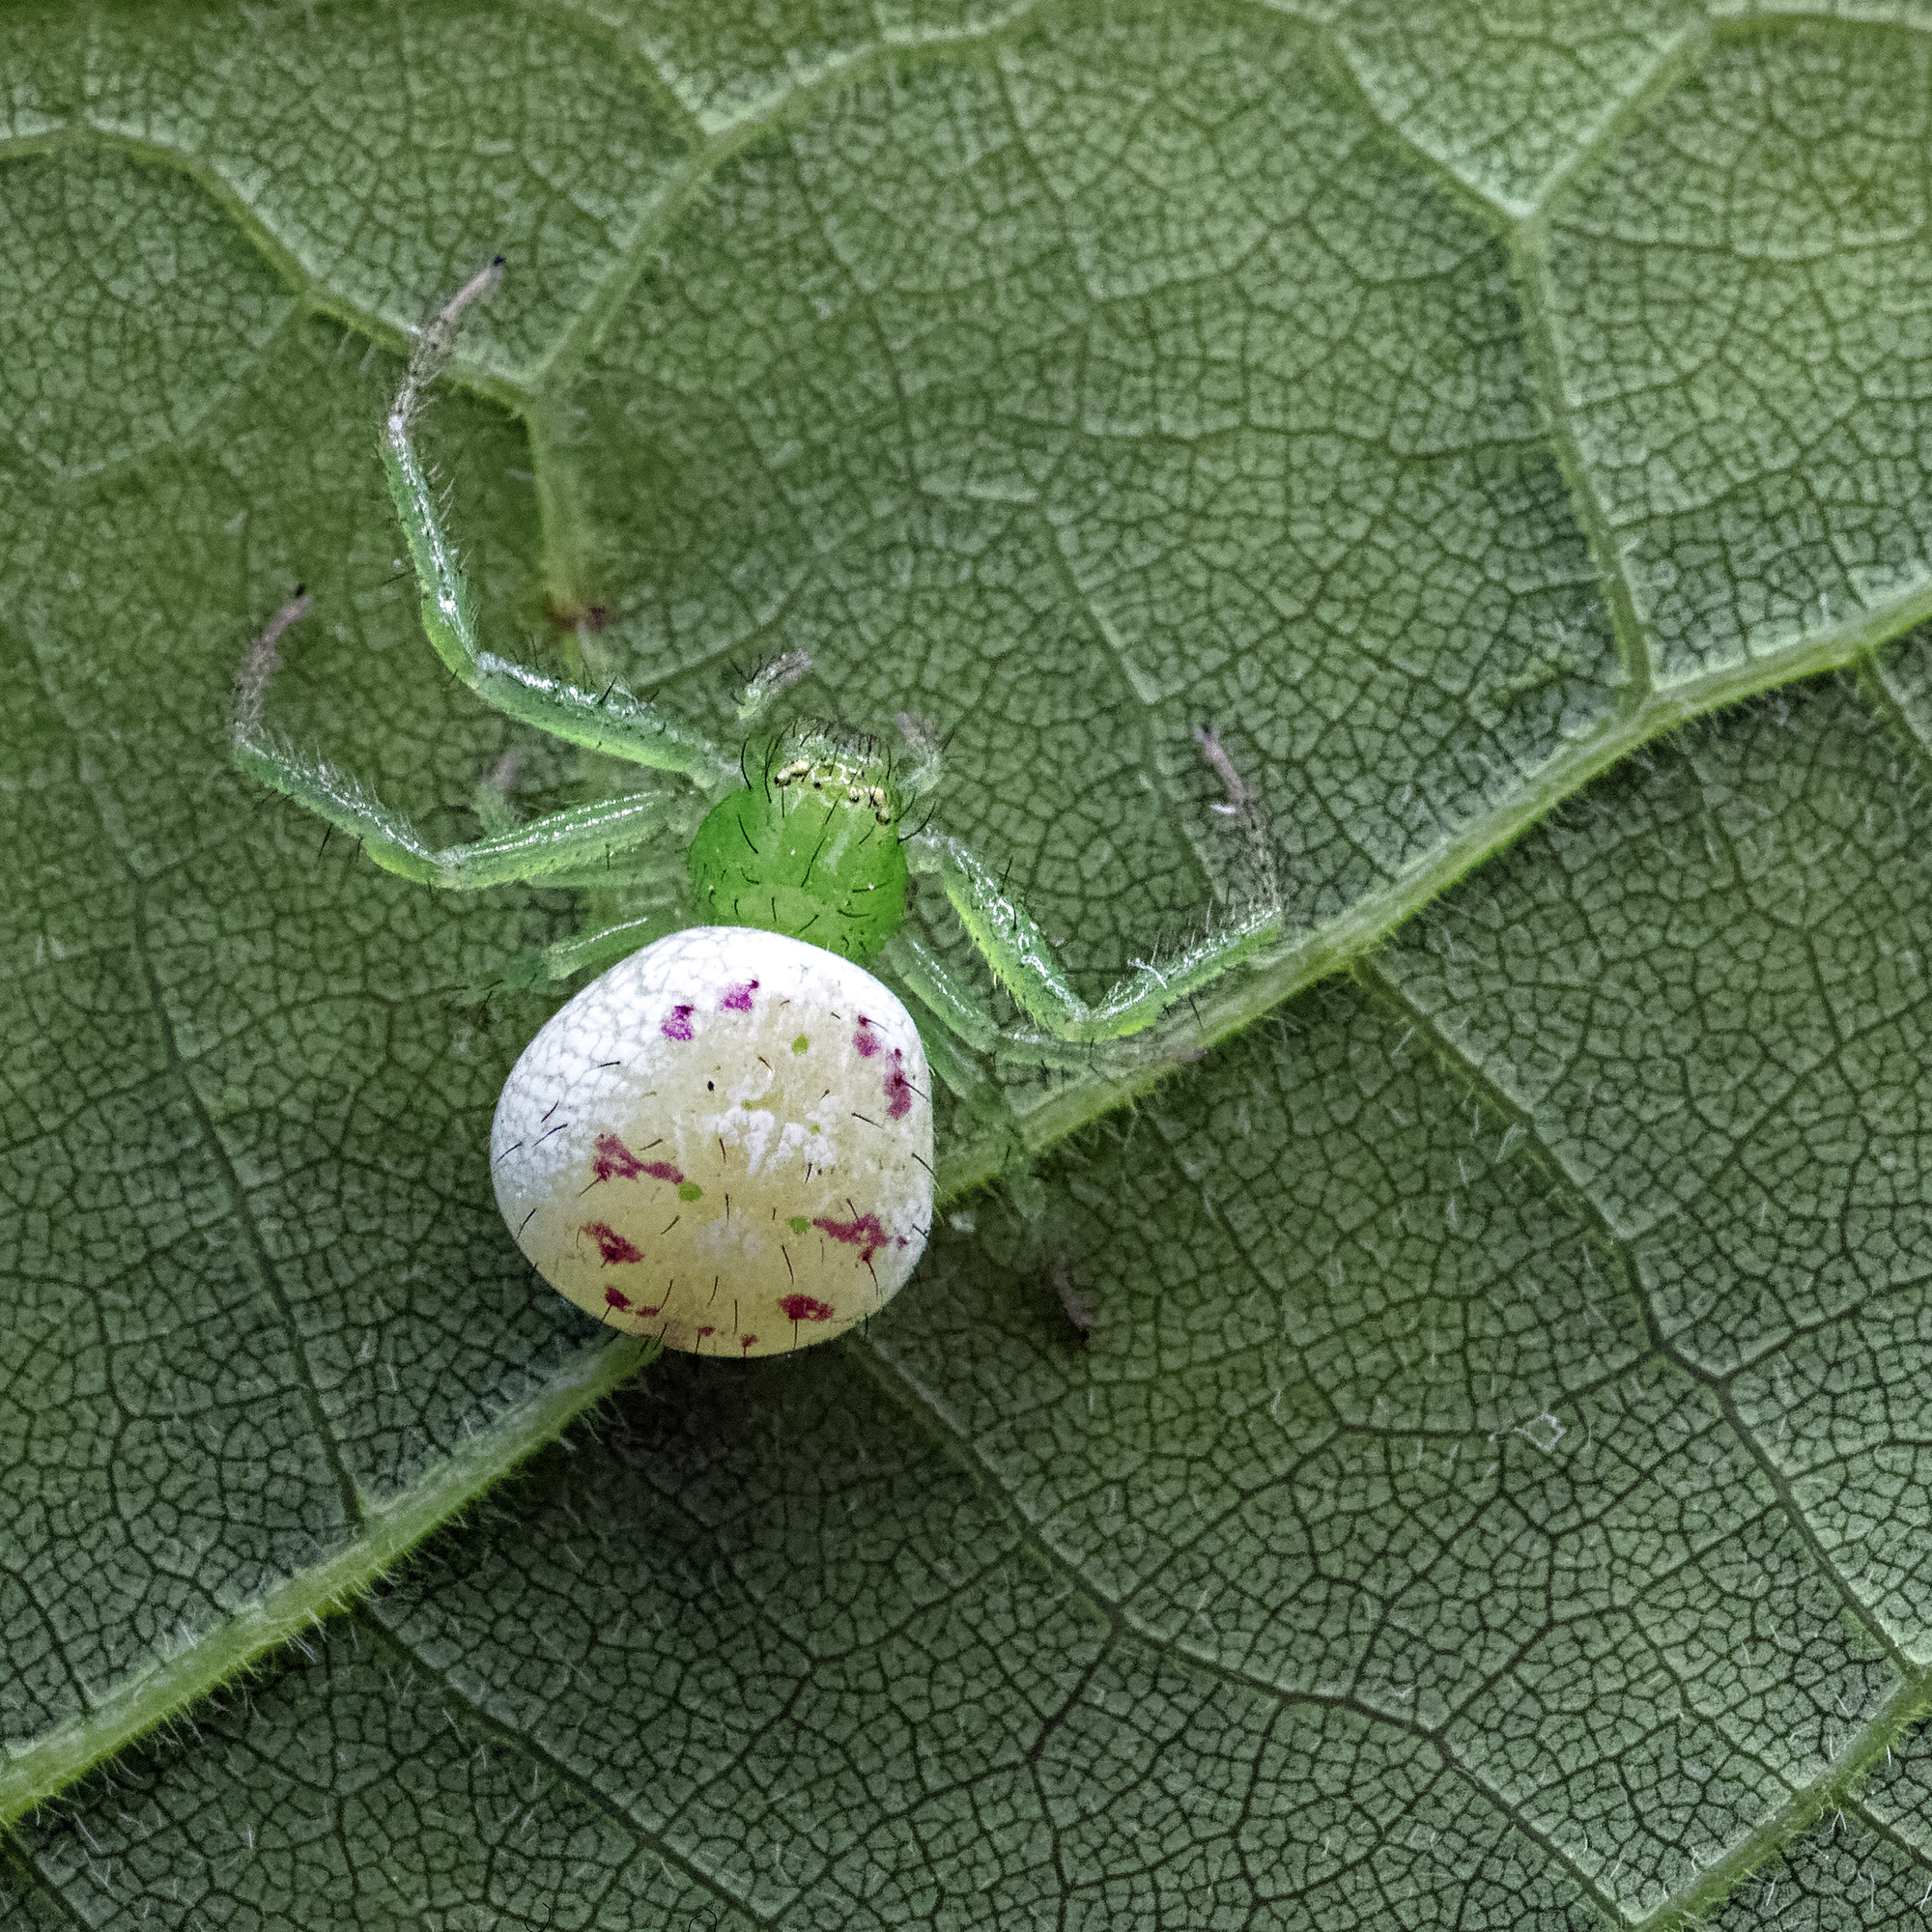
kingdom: Animalia
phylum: Arthropoda
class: Arachnida
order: Araneae
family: Thomisidae
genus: Synema
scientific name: Synema viridans
